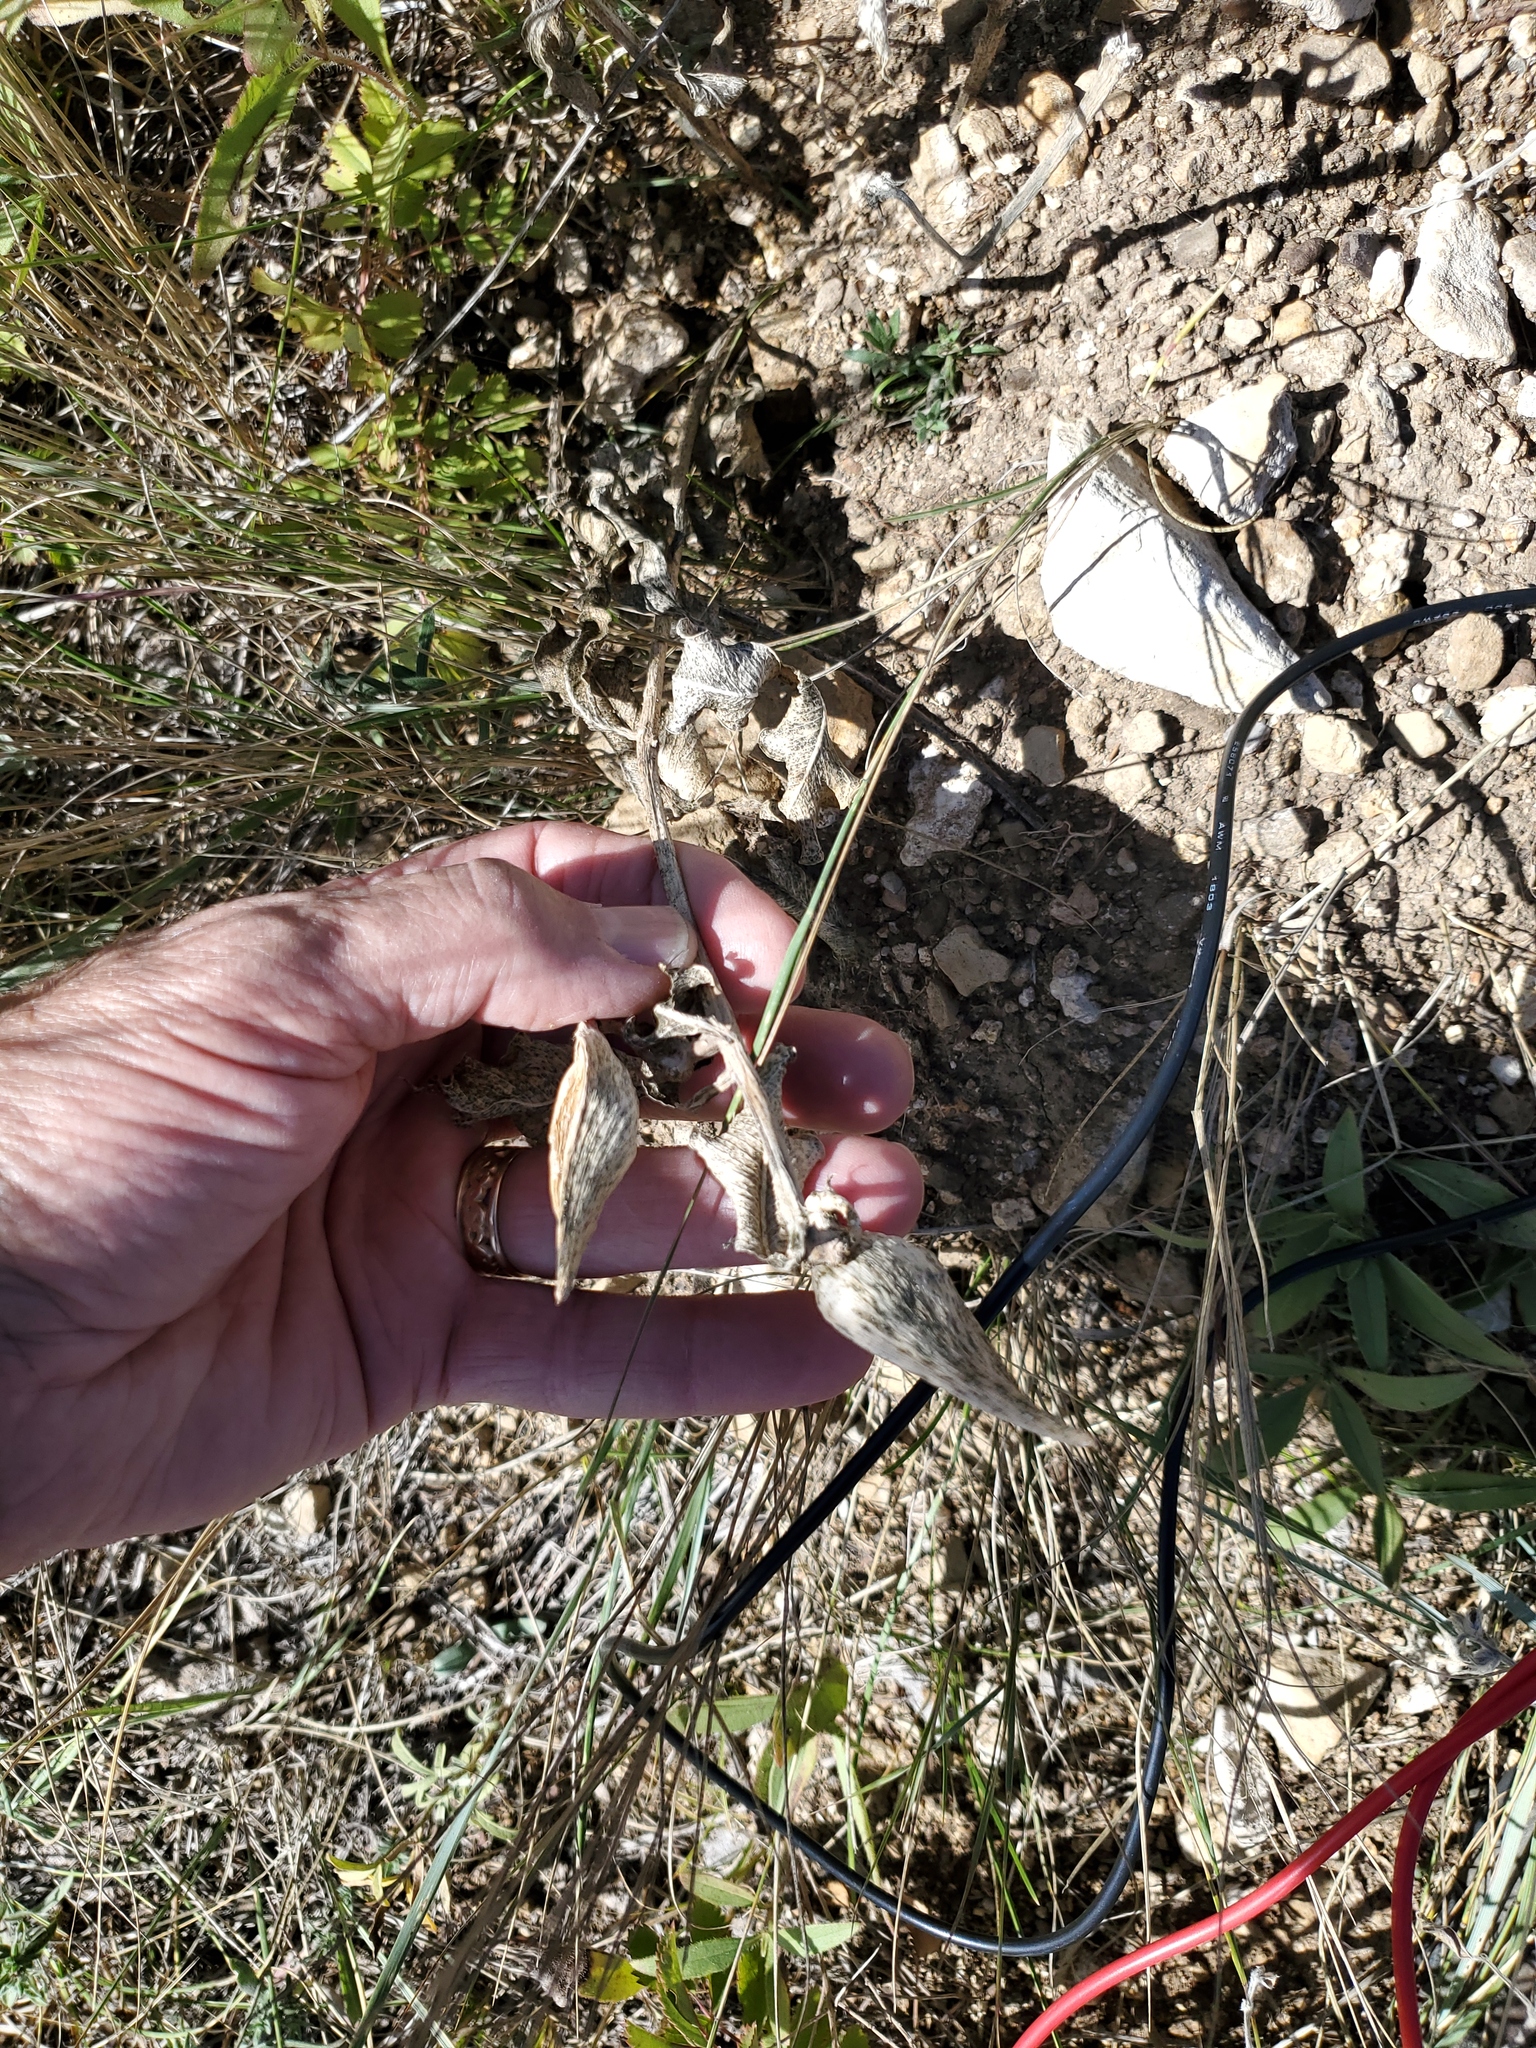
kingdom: Plantae
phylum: Tracheophyta
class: Magnoliopsida
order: Gentianales
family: Apocynaceae
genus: Asclepias
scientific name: Asclepias speciosa
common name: Showy milkweed
